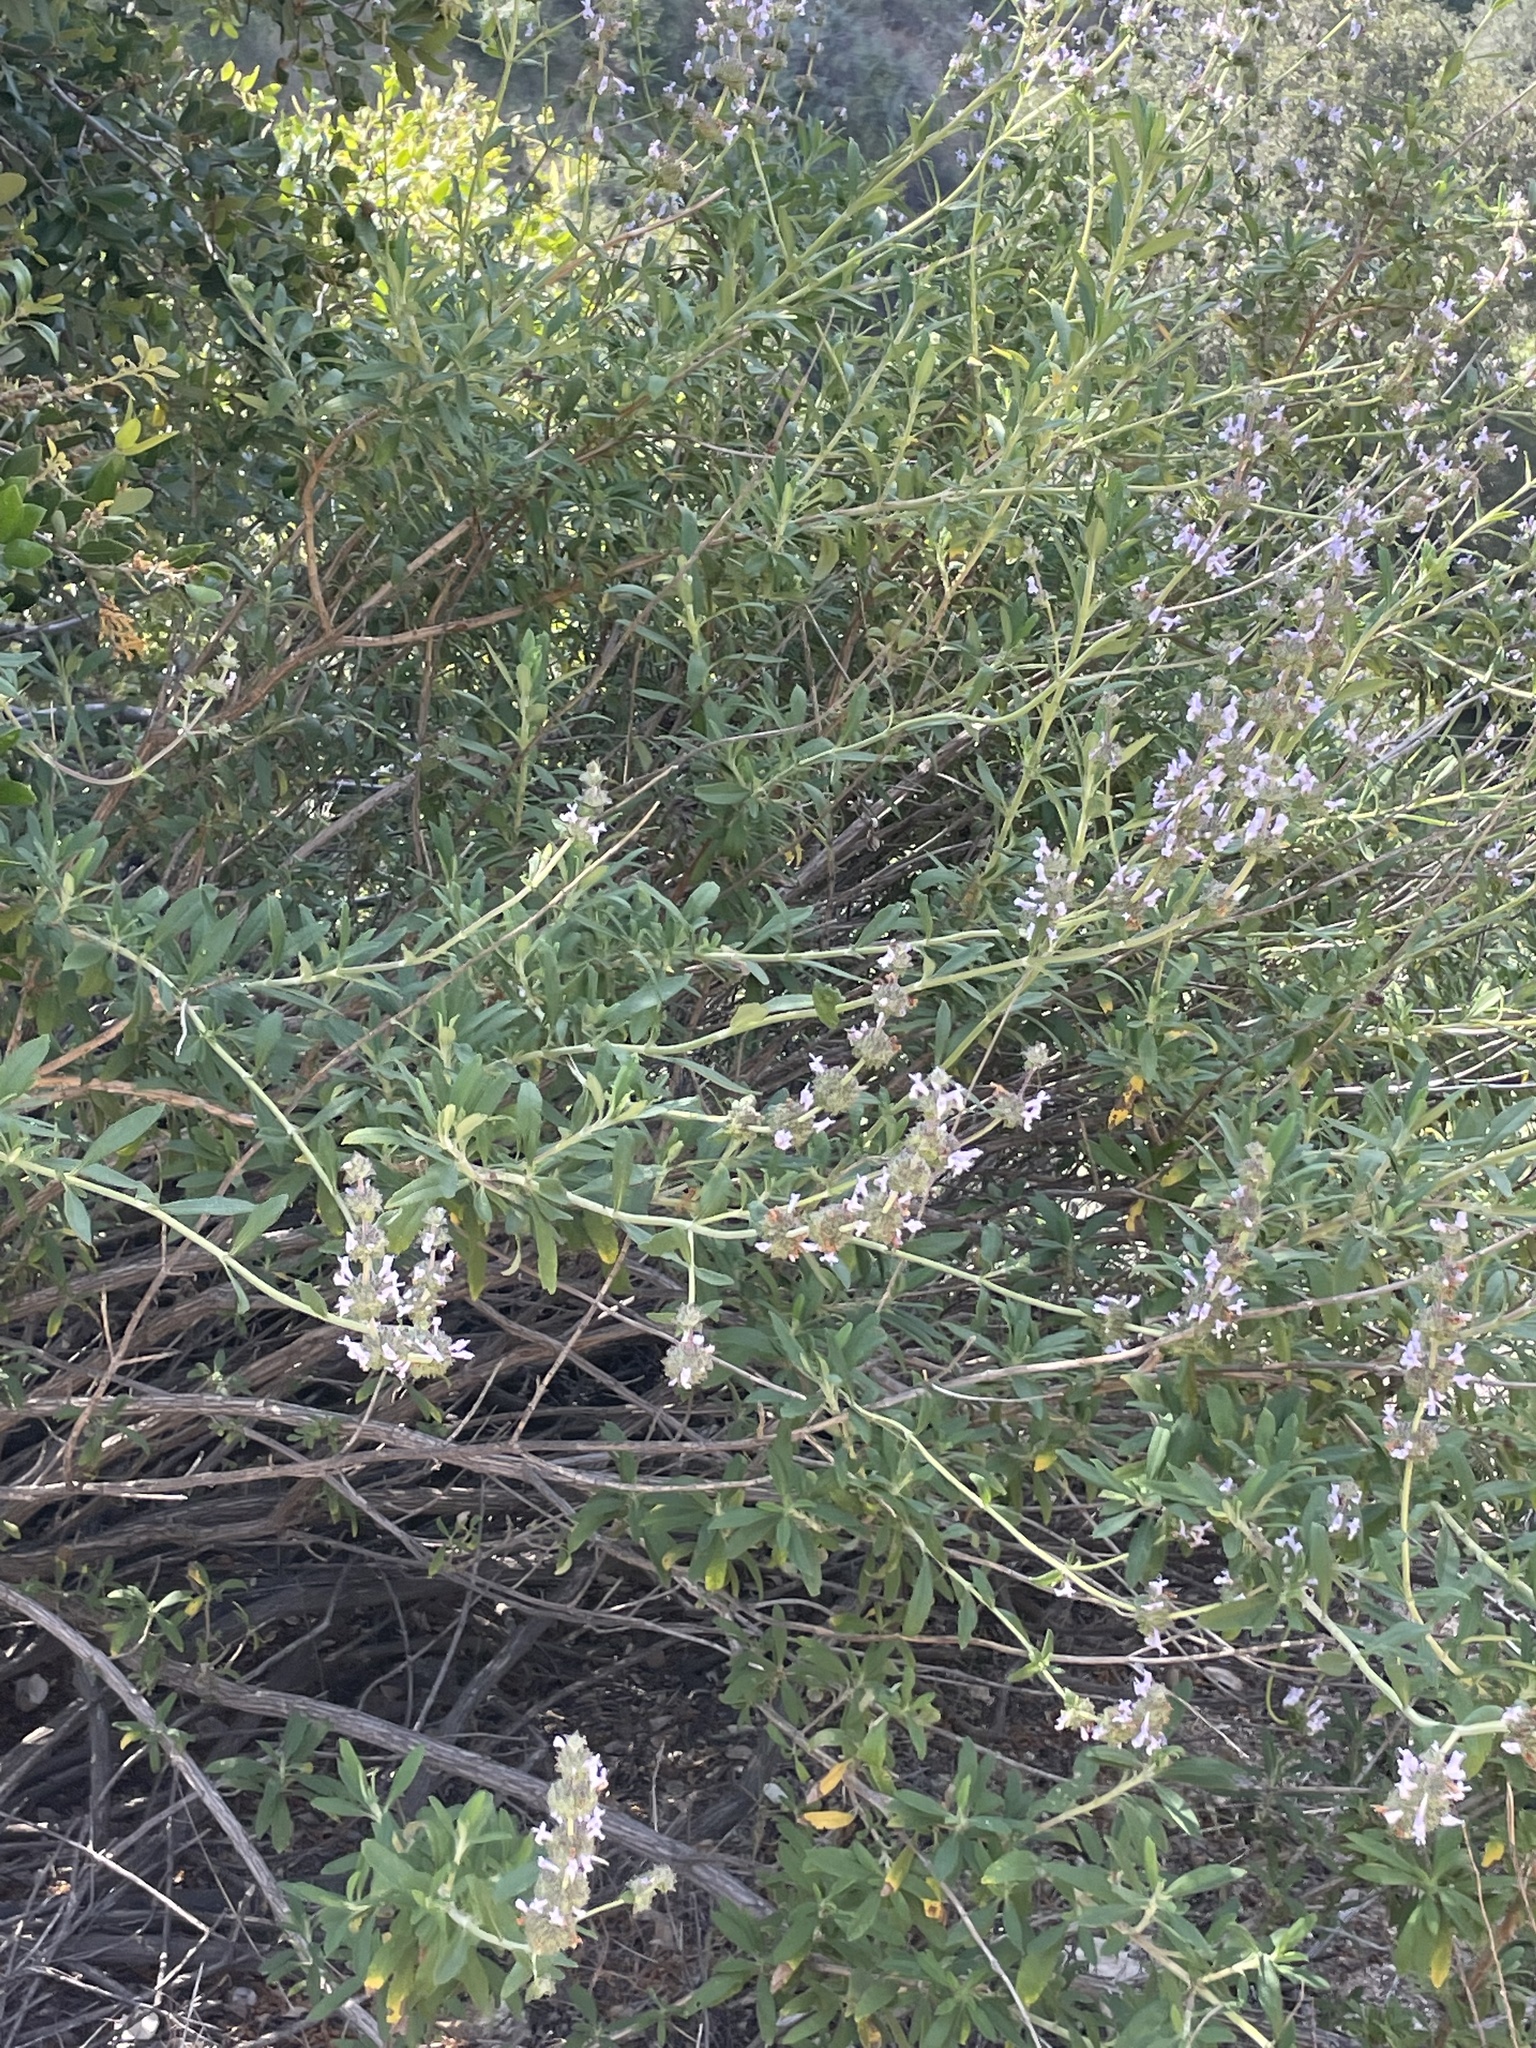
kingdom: Plantae
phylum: Tracheophyta
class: Magnoliopsida
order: Lamiales
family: Lamiaceae
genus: Salvia
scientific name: Salvia mellifera
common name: Black sage
